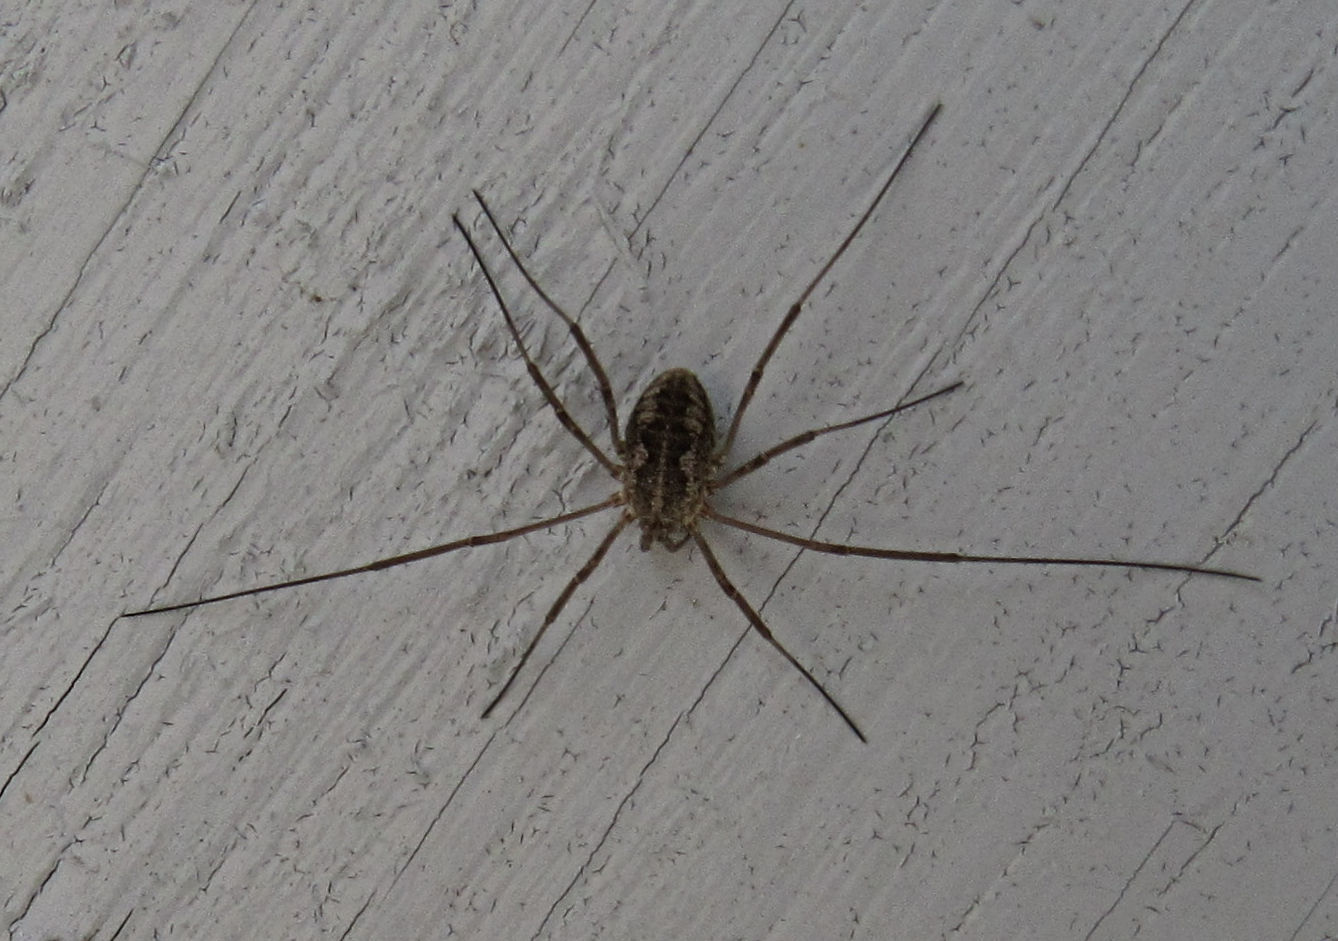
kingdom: Animalia
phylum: Arthropoda
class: Arachnida
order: Opiliones
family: Phalangiidae
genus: Phalangium
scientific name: Phalangium opilio
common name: Daddy longleg
